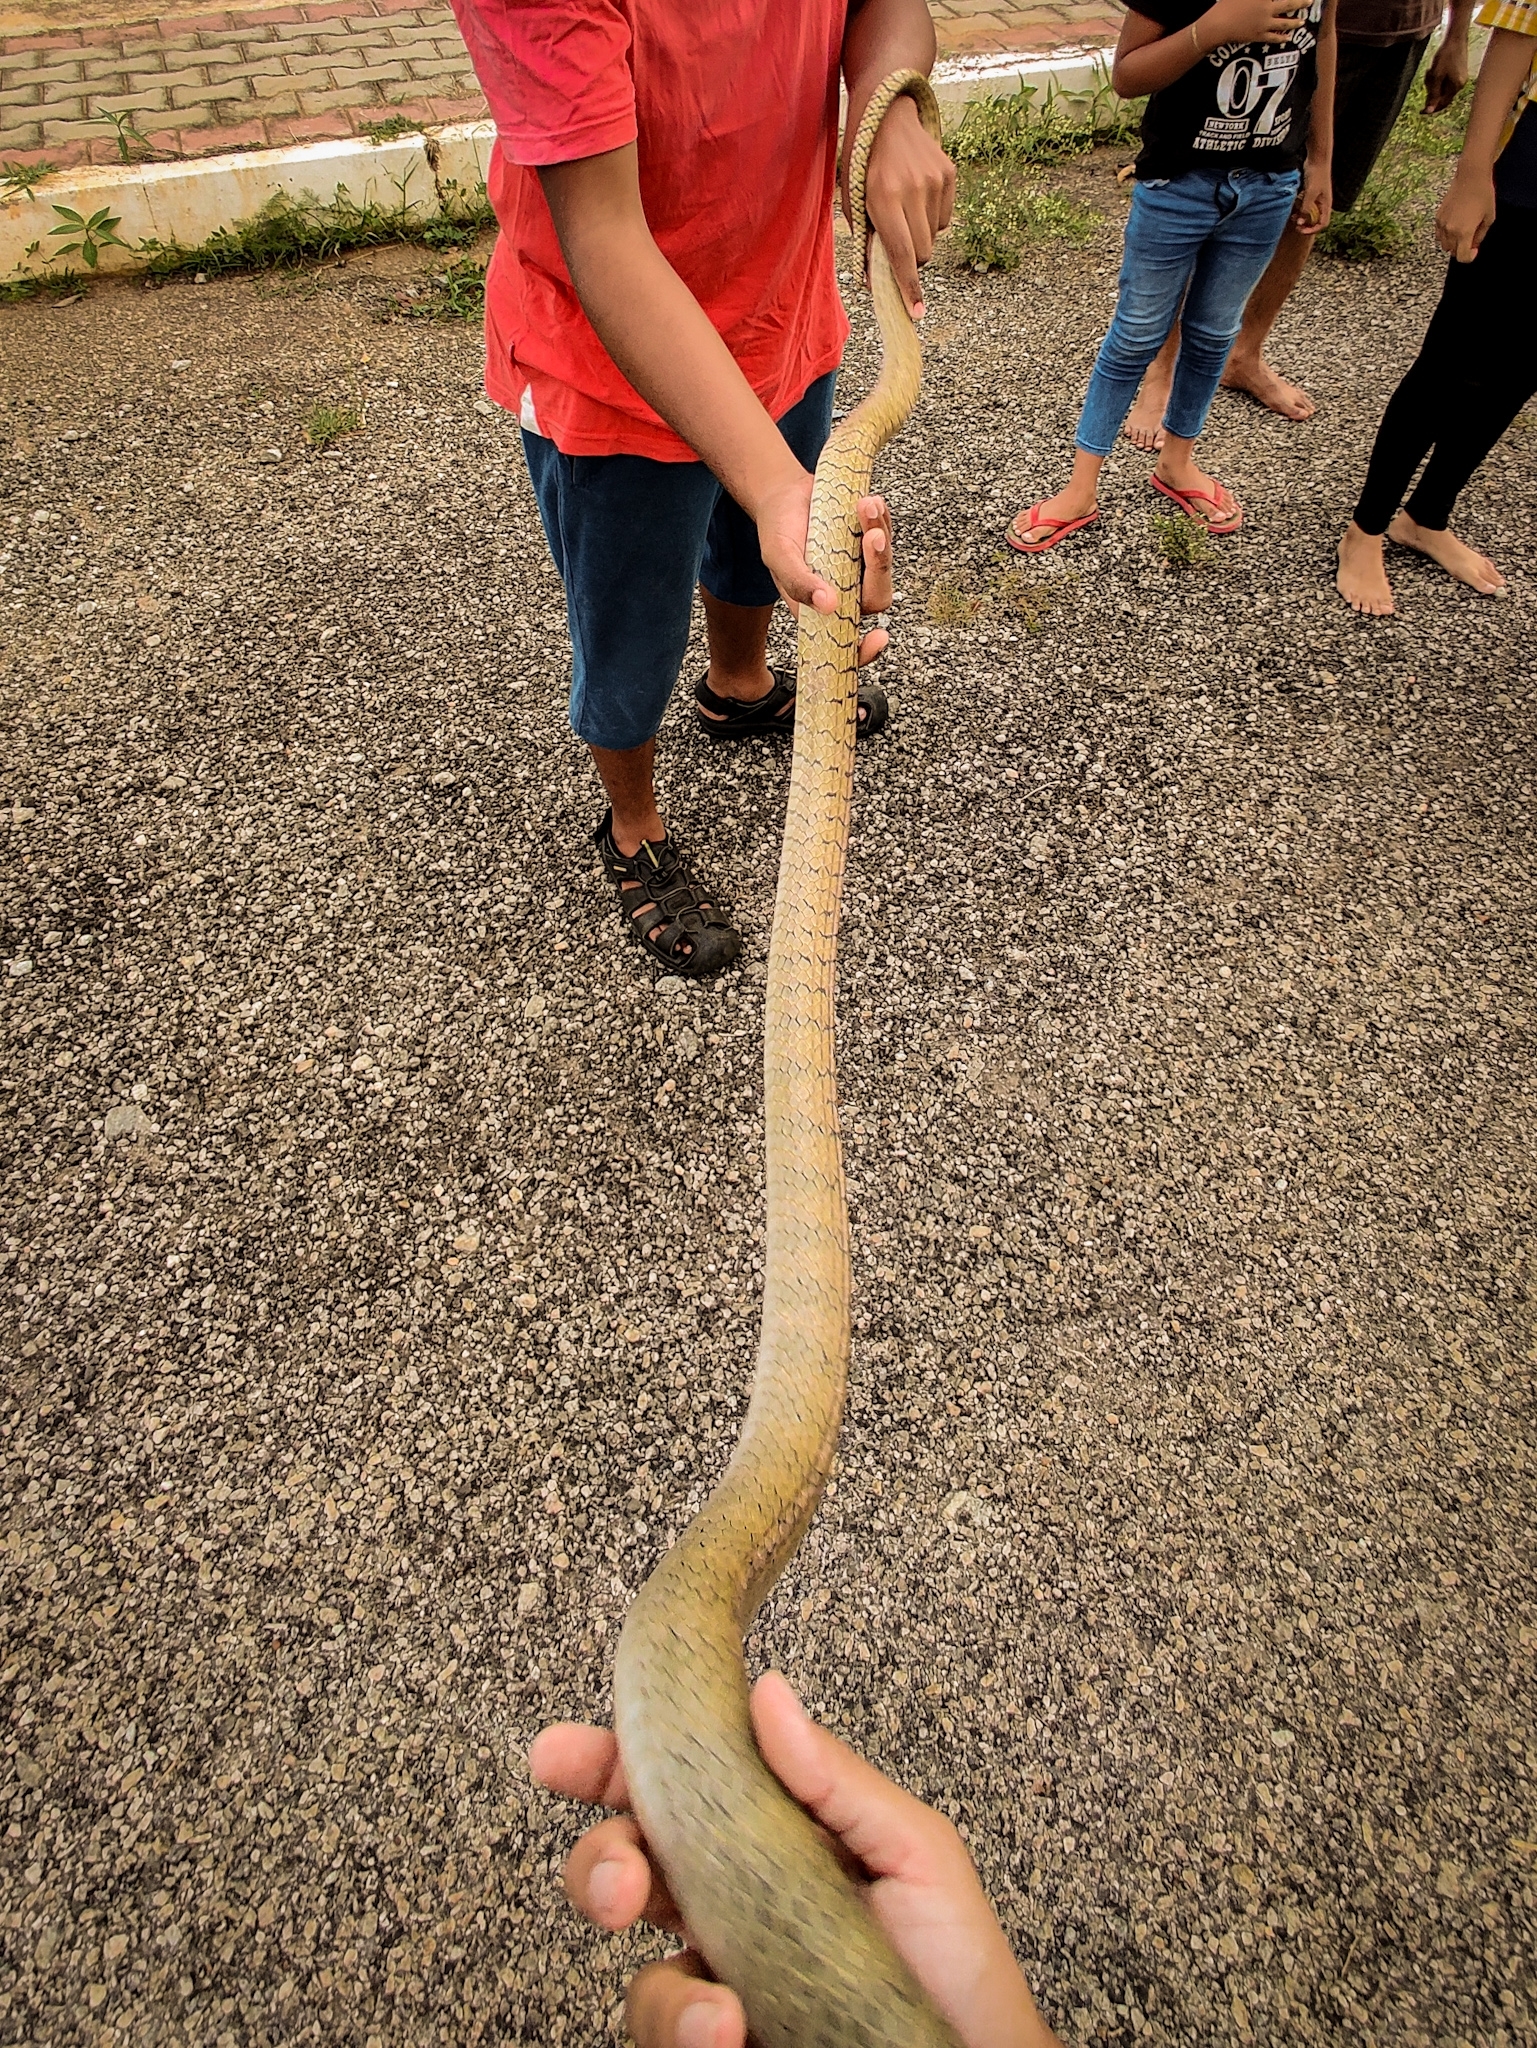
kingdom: Animalia
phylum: Chordata
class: Squamata
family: Colubridae
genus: Ptyas
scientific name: Ptyas mucosa
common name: Oriental ratsnake
